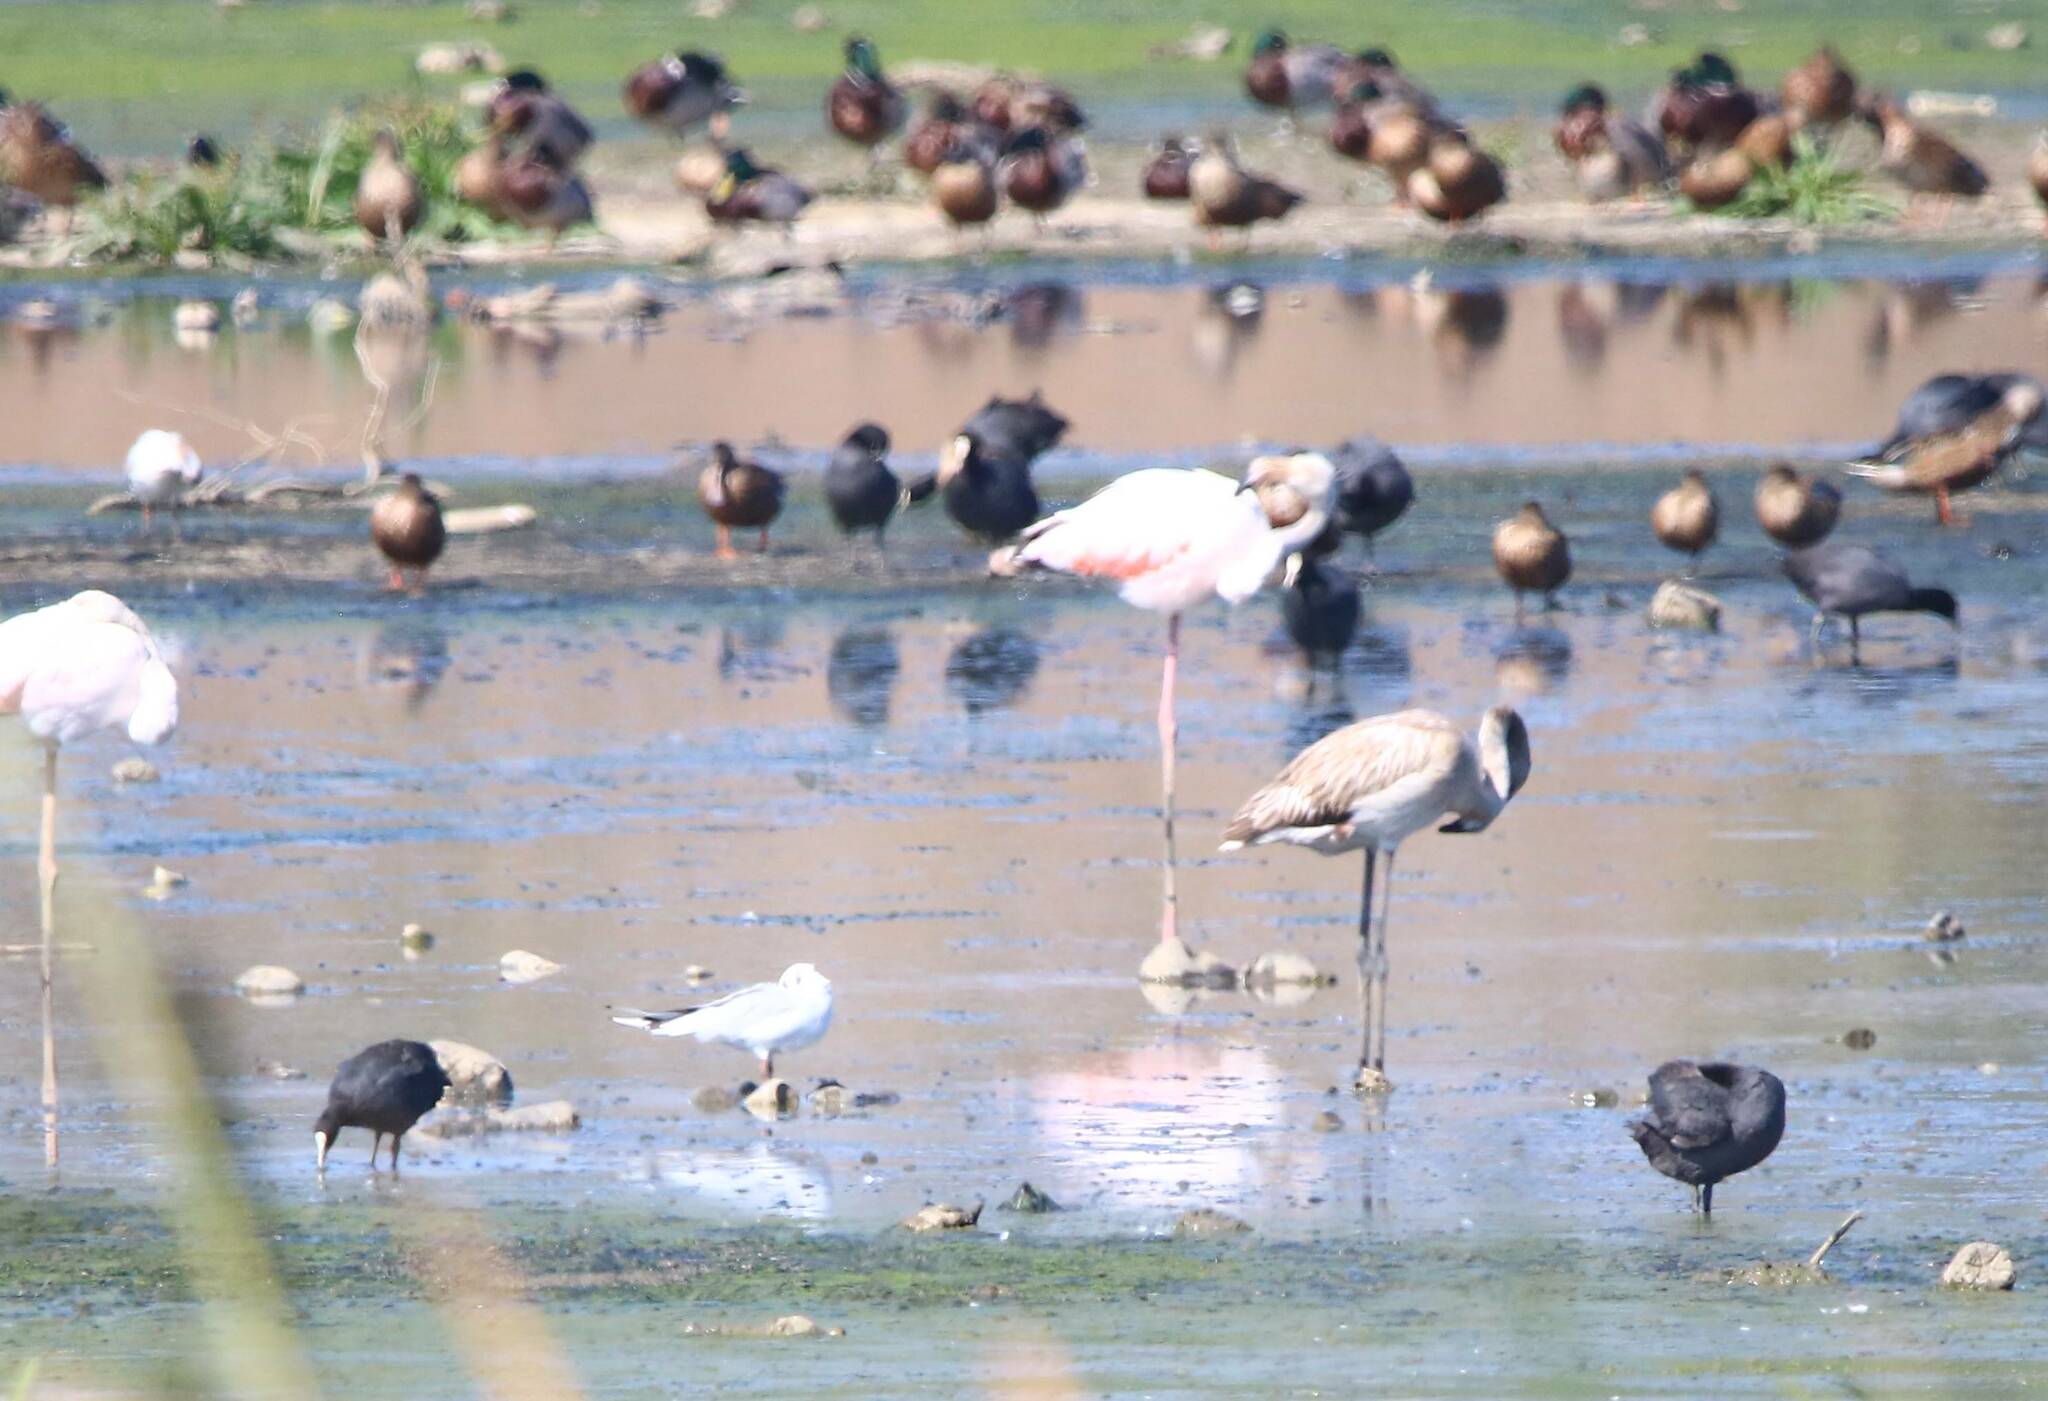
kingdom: Animalia
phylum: Chordata
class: Aves
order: Phoenicopteriformes
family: Phoenicopteridae
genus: Phoenicopterus
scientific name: Phoenicopterus roseus
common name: Greater flamingo
